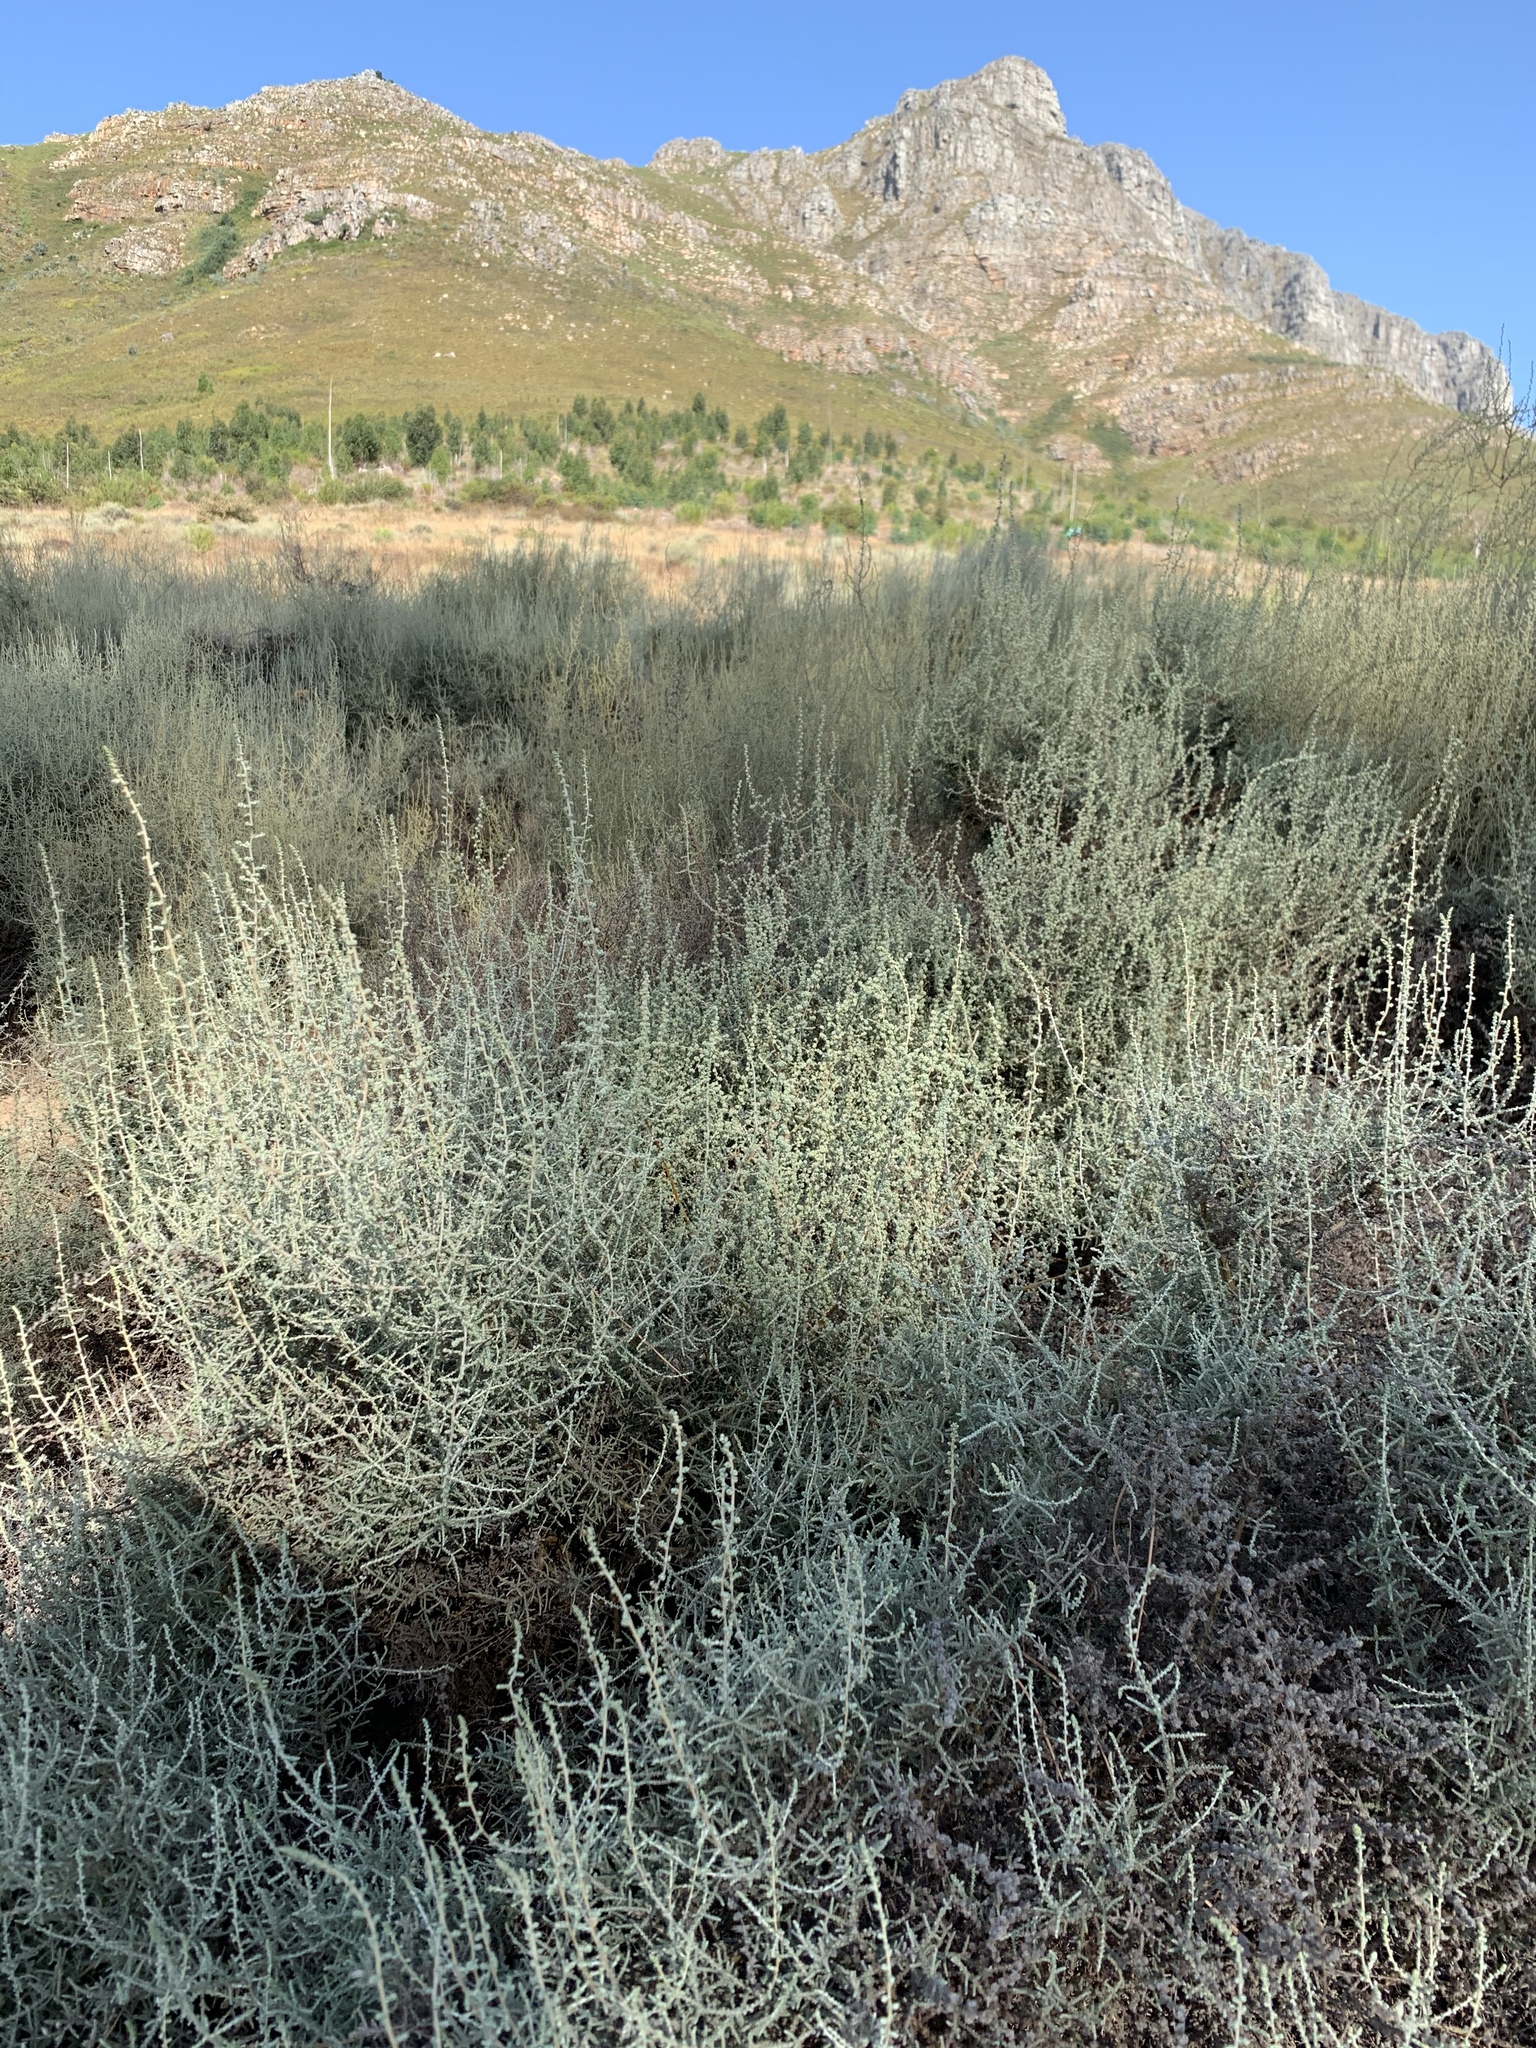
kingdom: Plantae
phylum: Tracheophyta
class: Magnoliopsida
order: Asterales
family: Asteraceae
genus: Seriphium
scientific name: Seriphium plumosum
